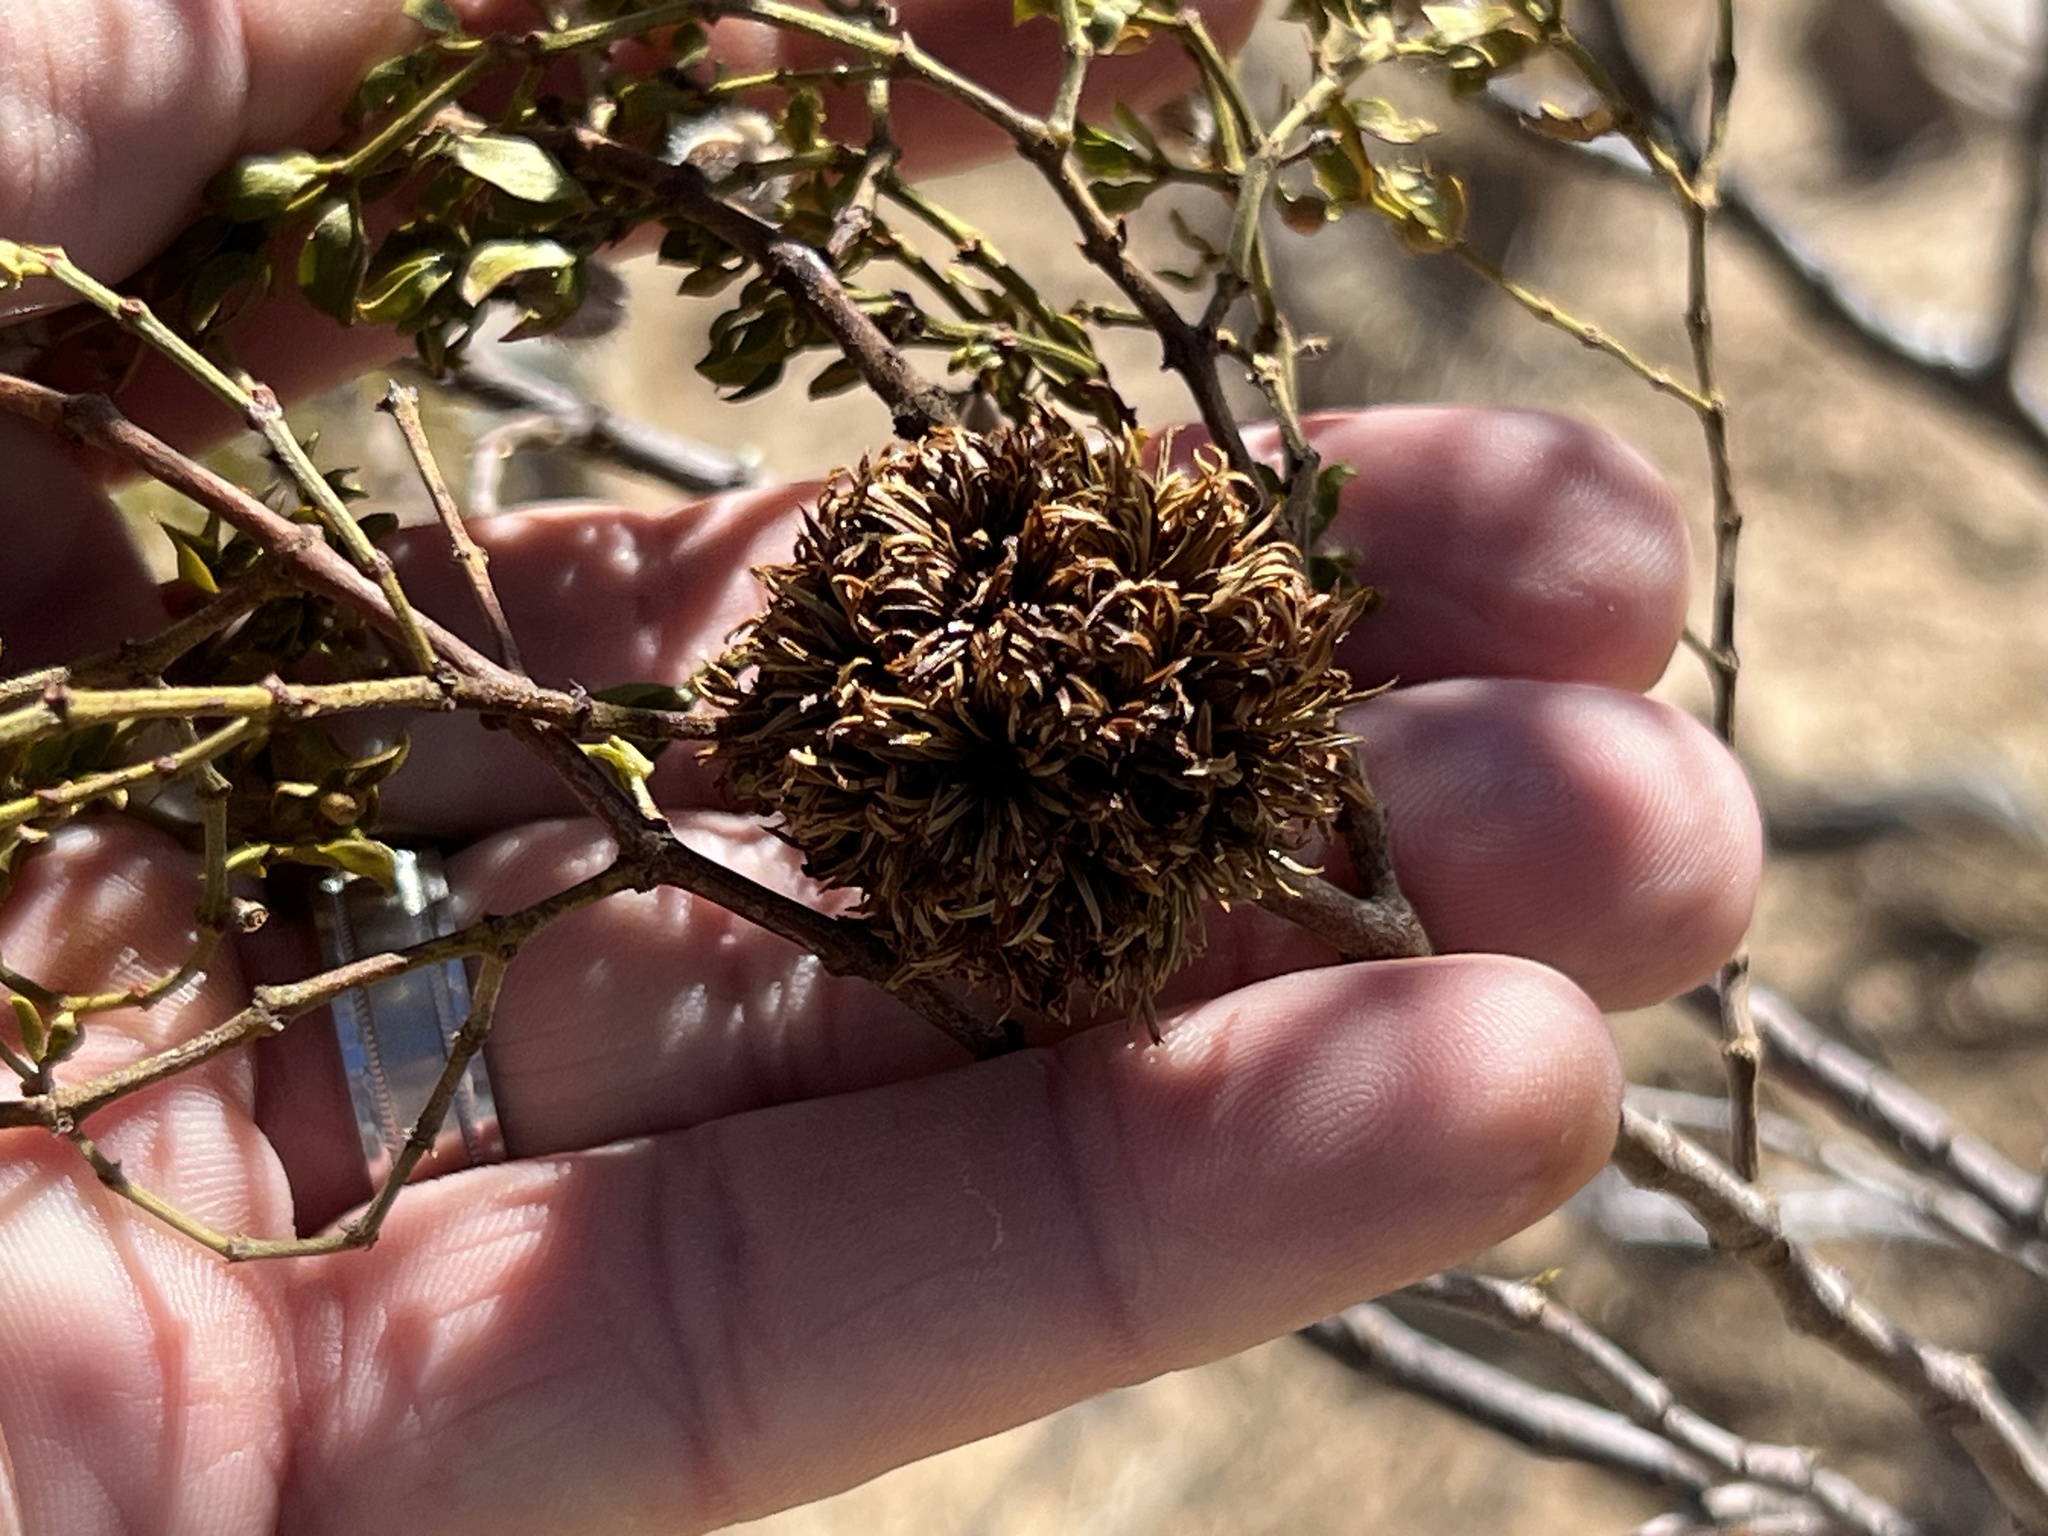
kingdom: Animalia
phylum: Arthropoda
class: Insecta
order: Diptera
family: Cecidomyiidae
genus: Asphondylia
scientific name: Asphondylia auripila
